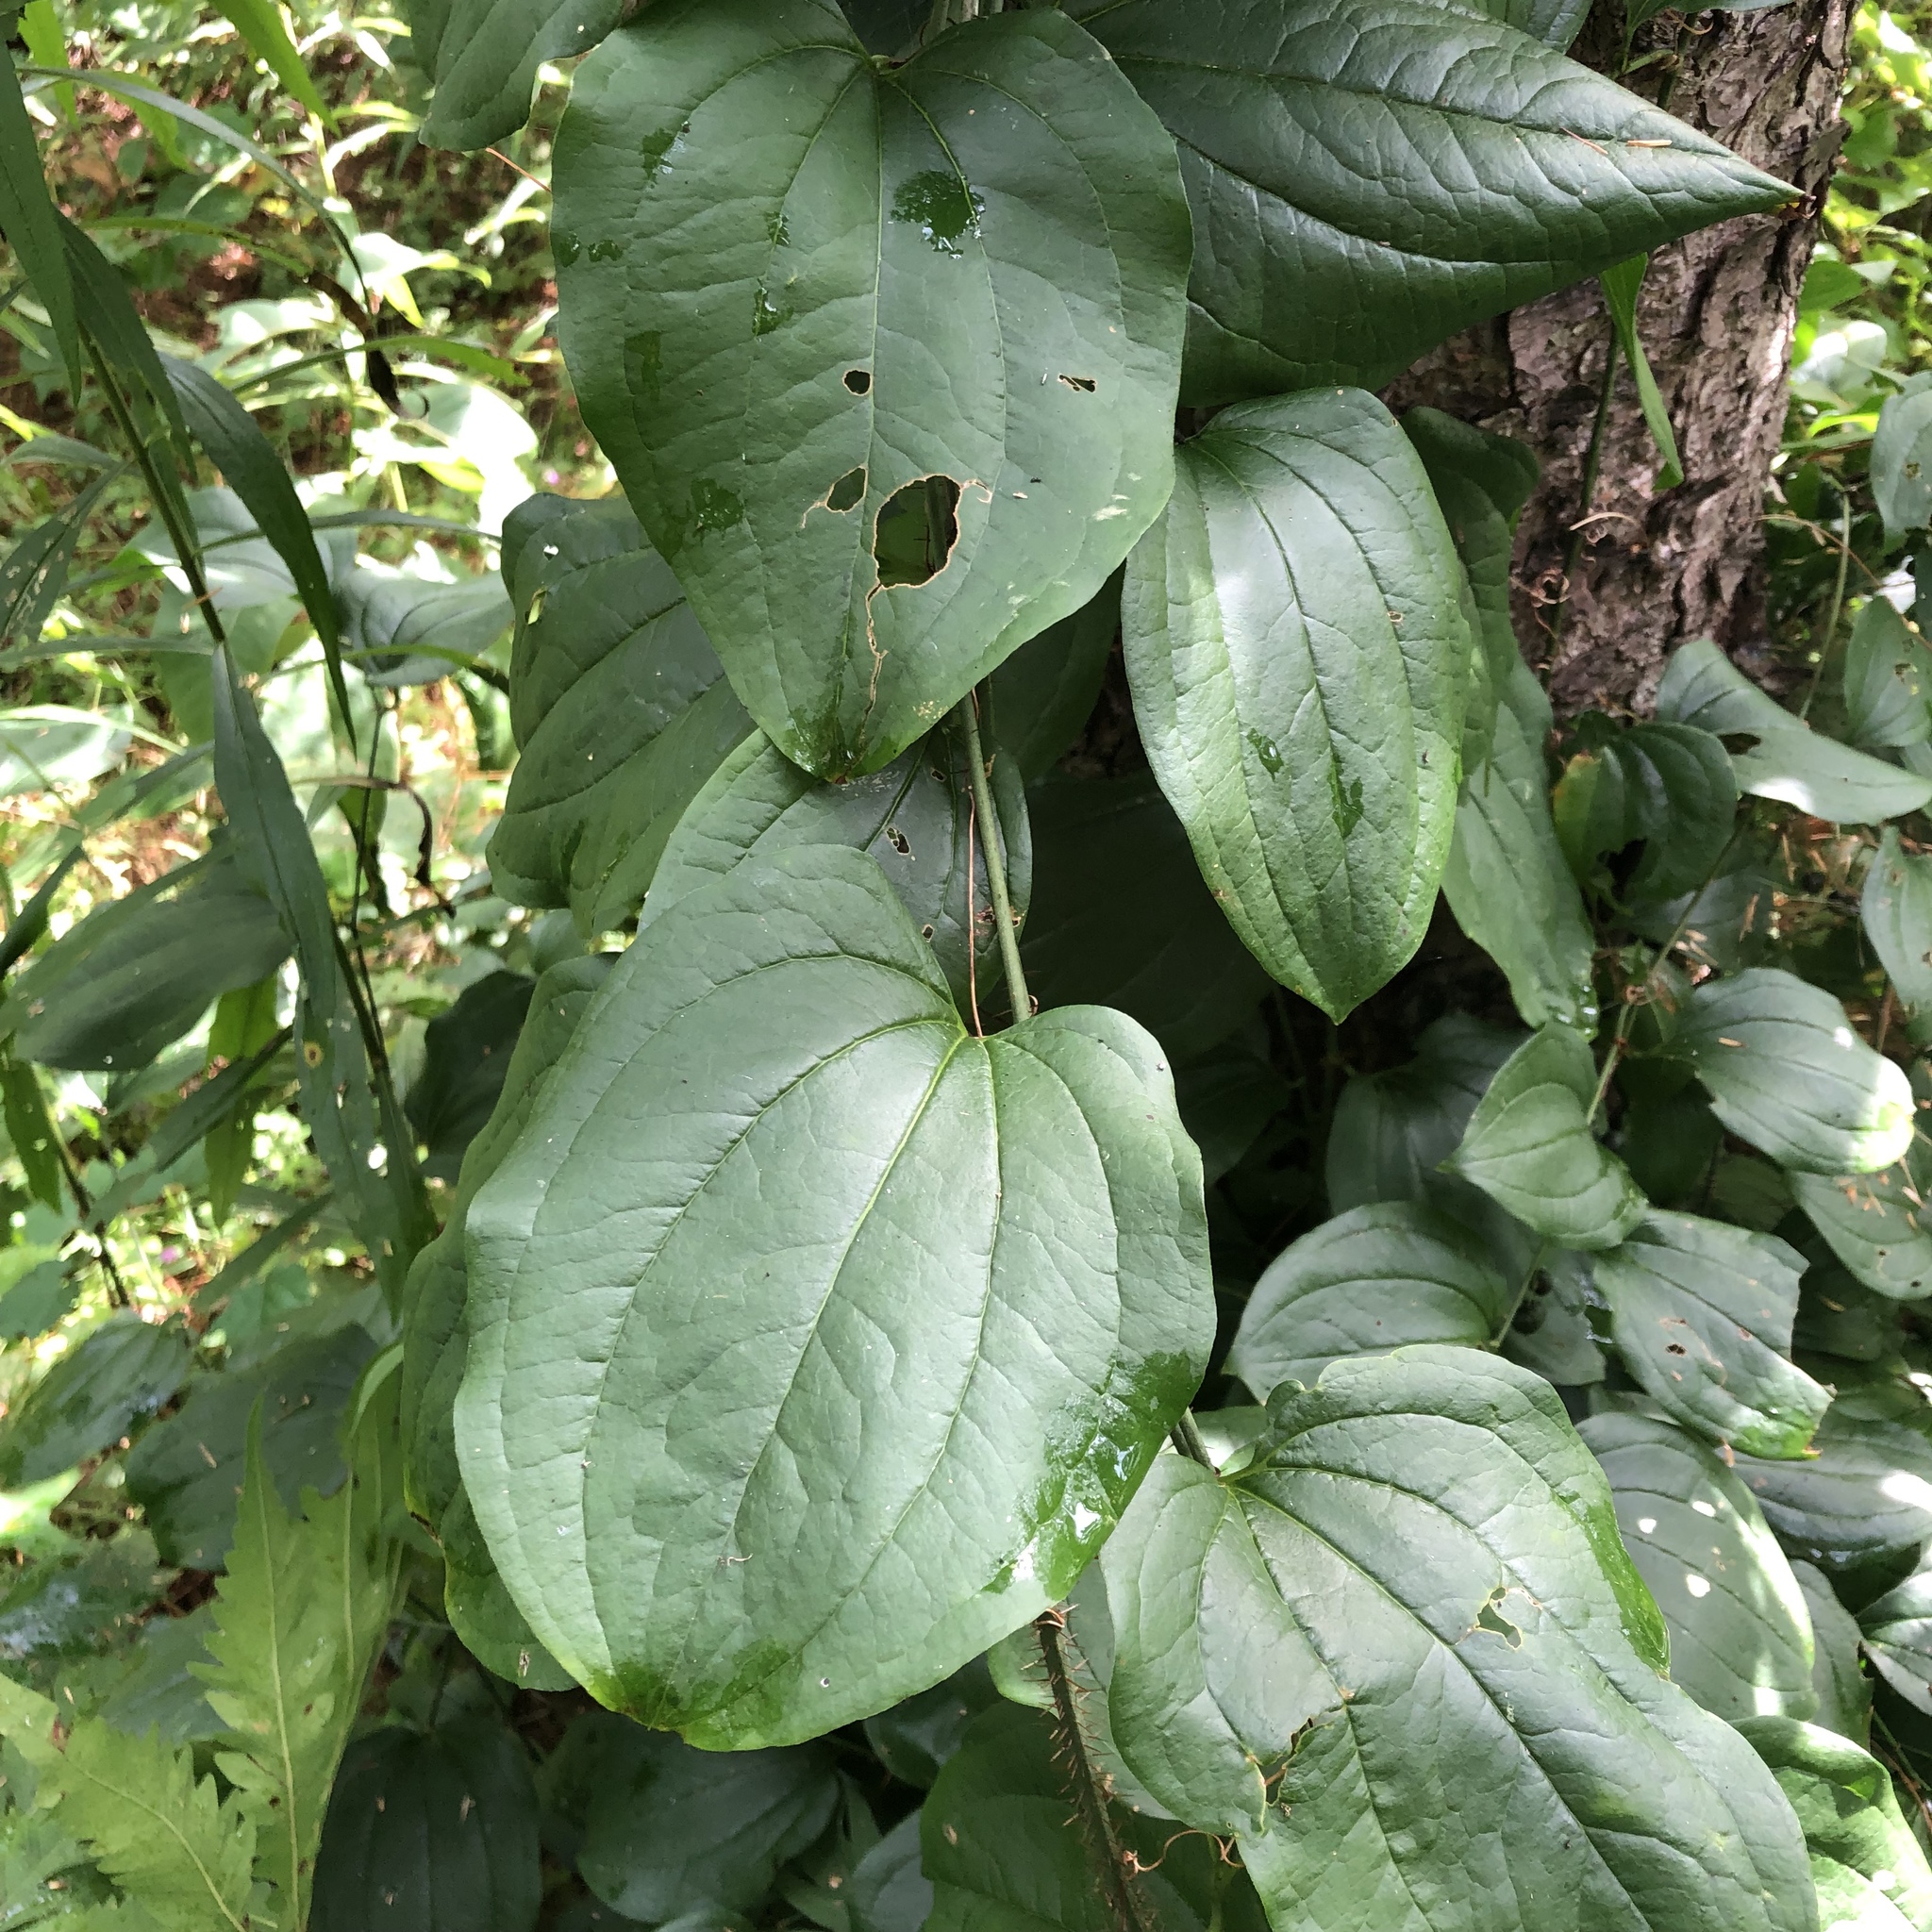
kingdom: Plantae
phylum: Tracheophyta
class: Liliopsida
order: Liliales
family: Smilacaceae
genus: Smilax
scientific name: Smilax tamnoides
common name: Hellfetter
